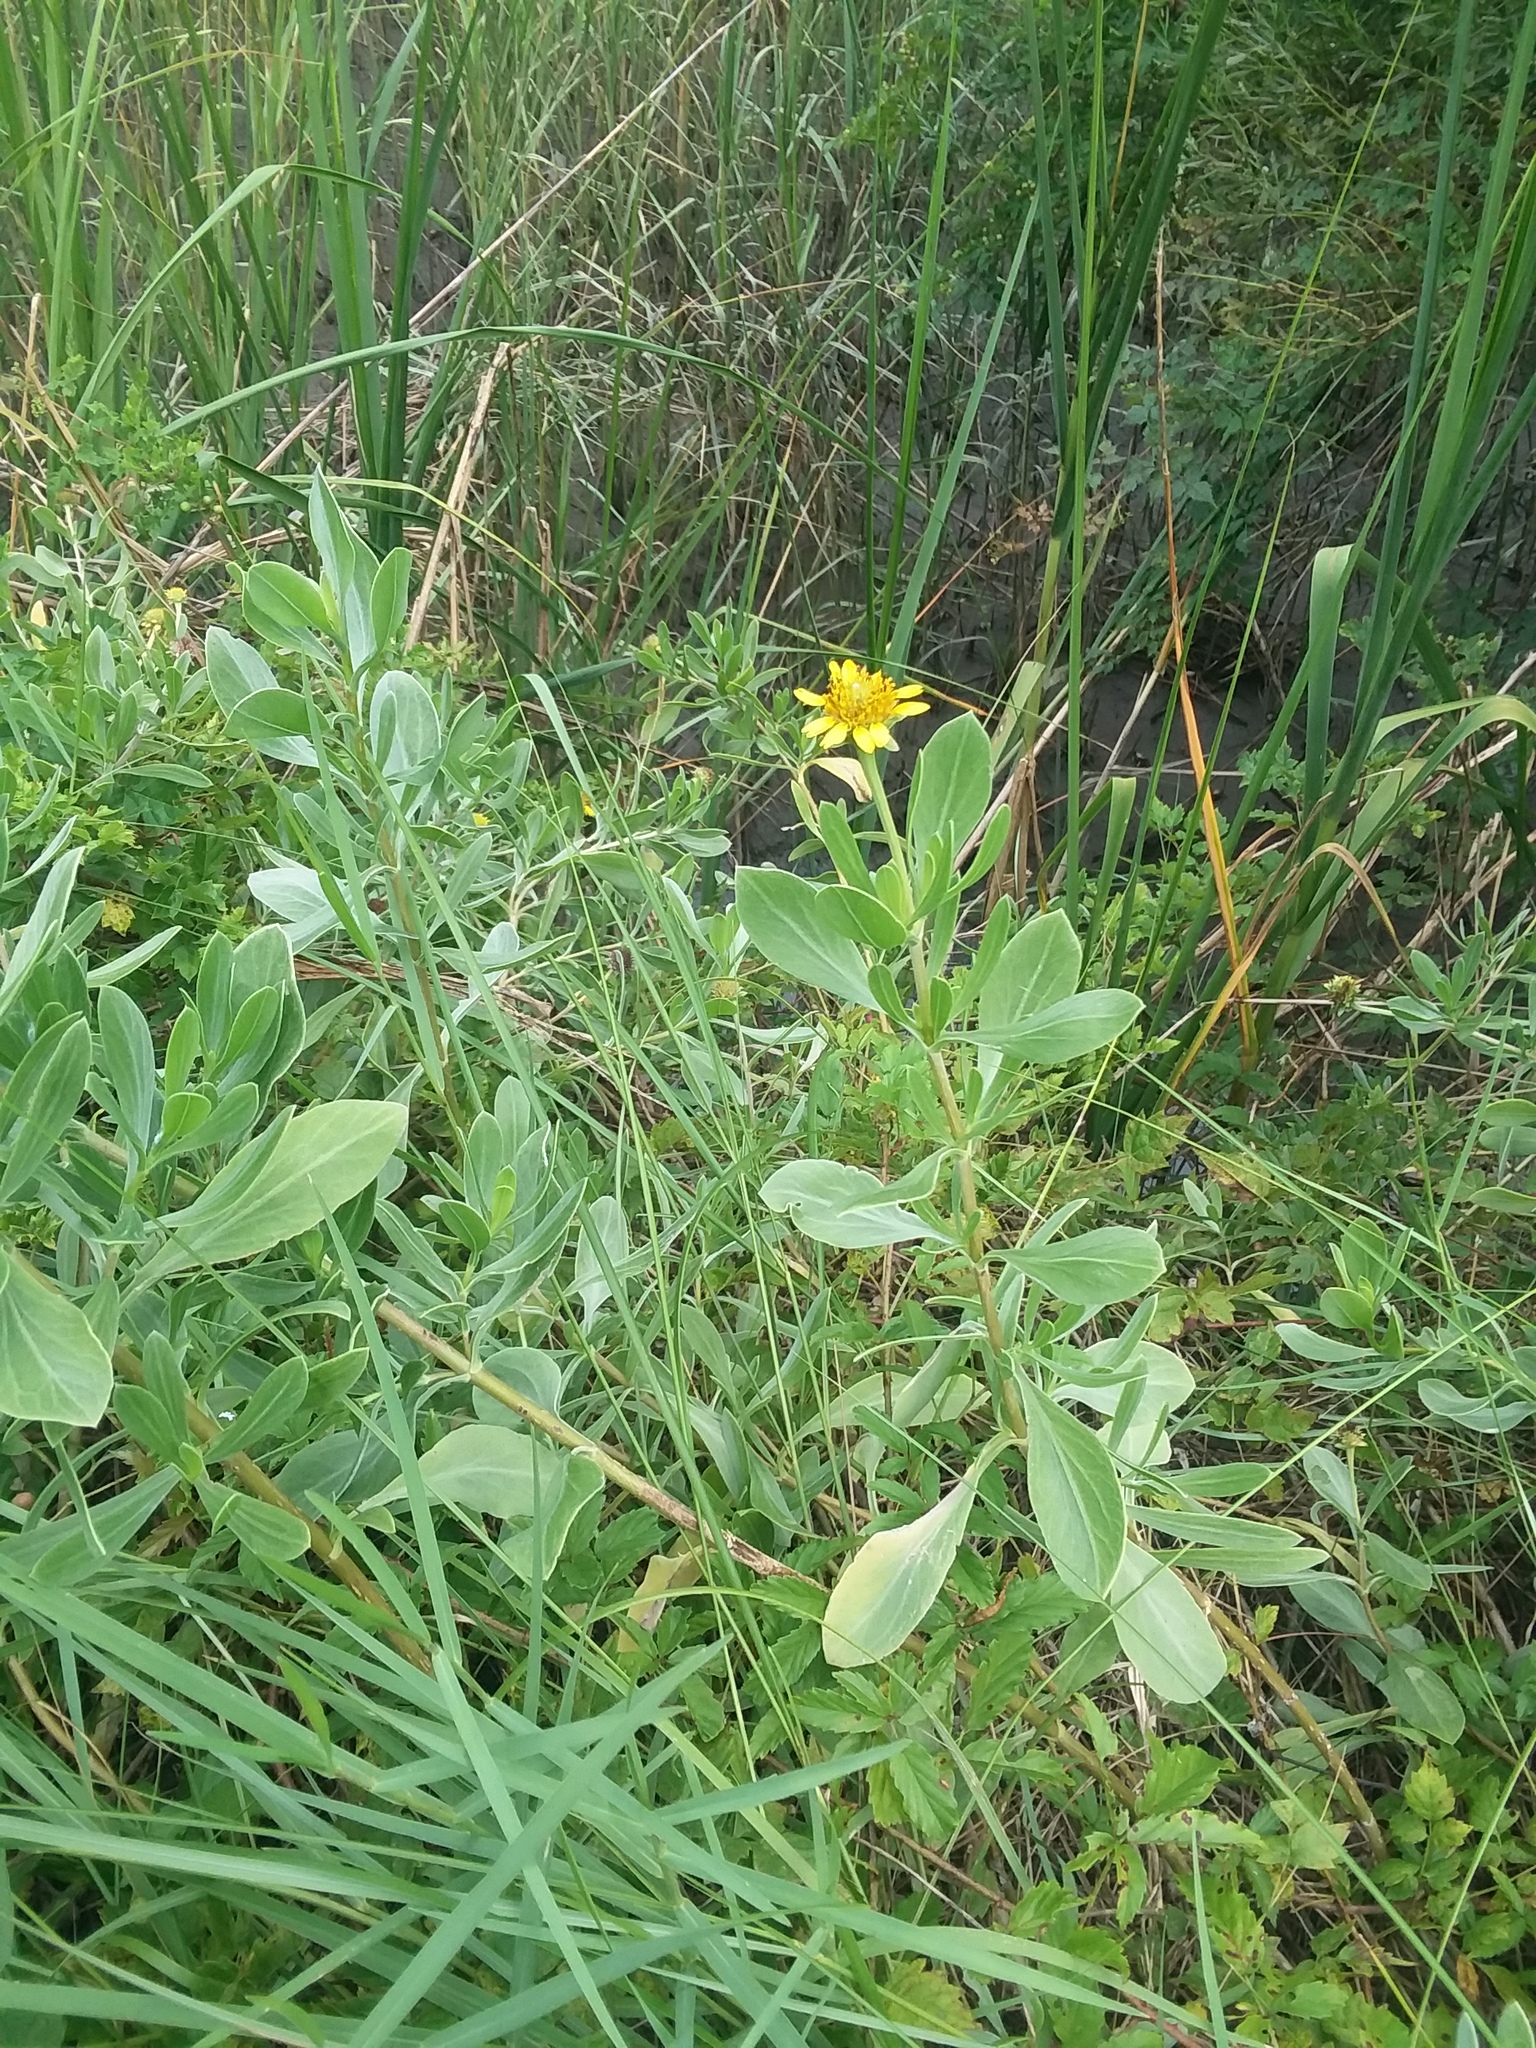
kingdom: Plantae
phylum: Tracheophyta
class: Magnoliopsida
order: Asterales
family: Asteraceae
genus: Borrichia
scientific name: Borrichia frutescens
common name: Sea oxeye
